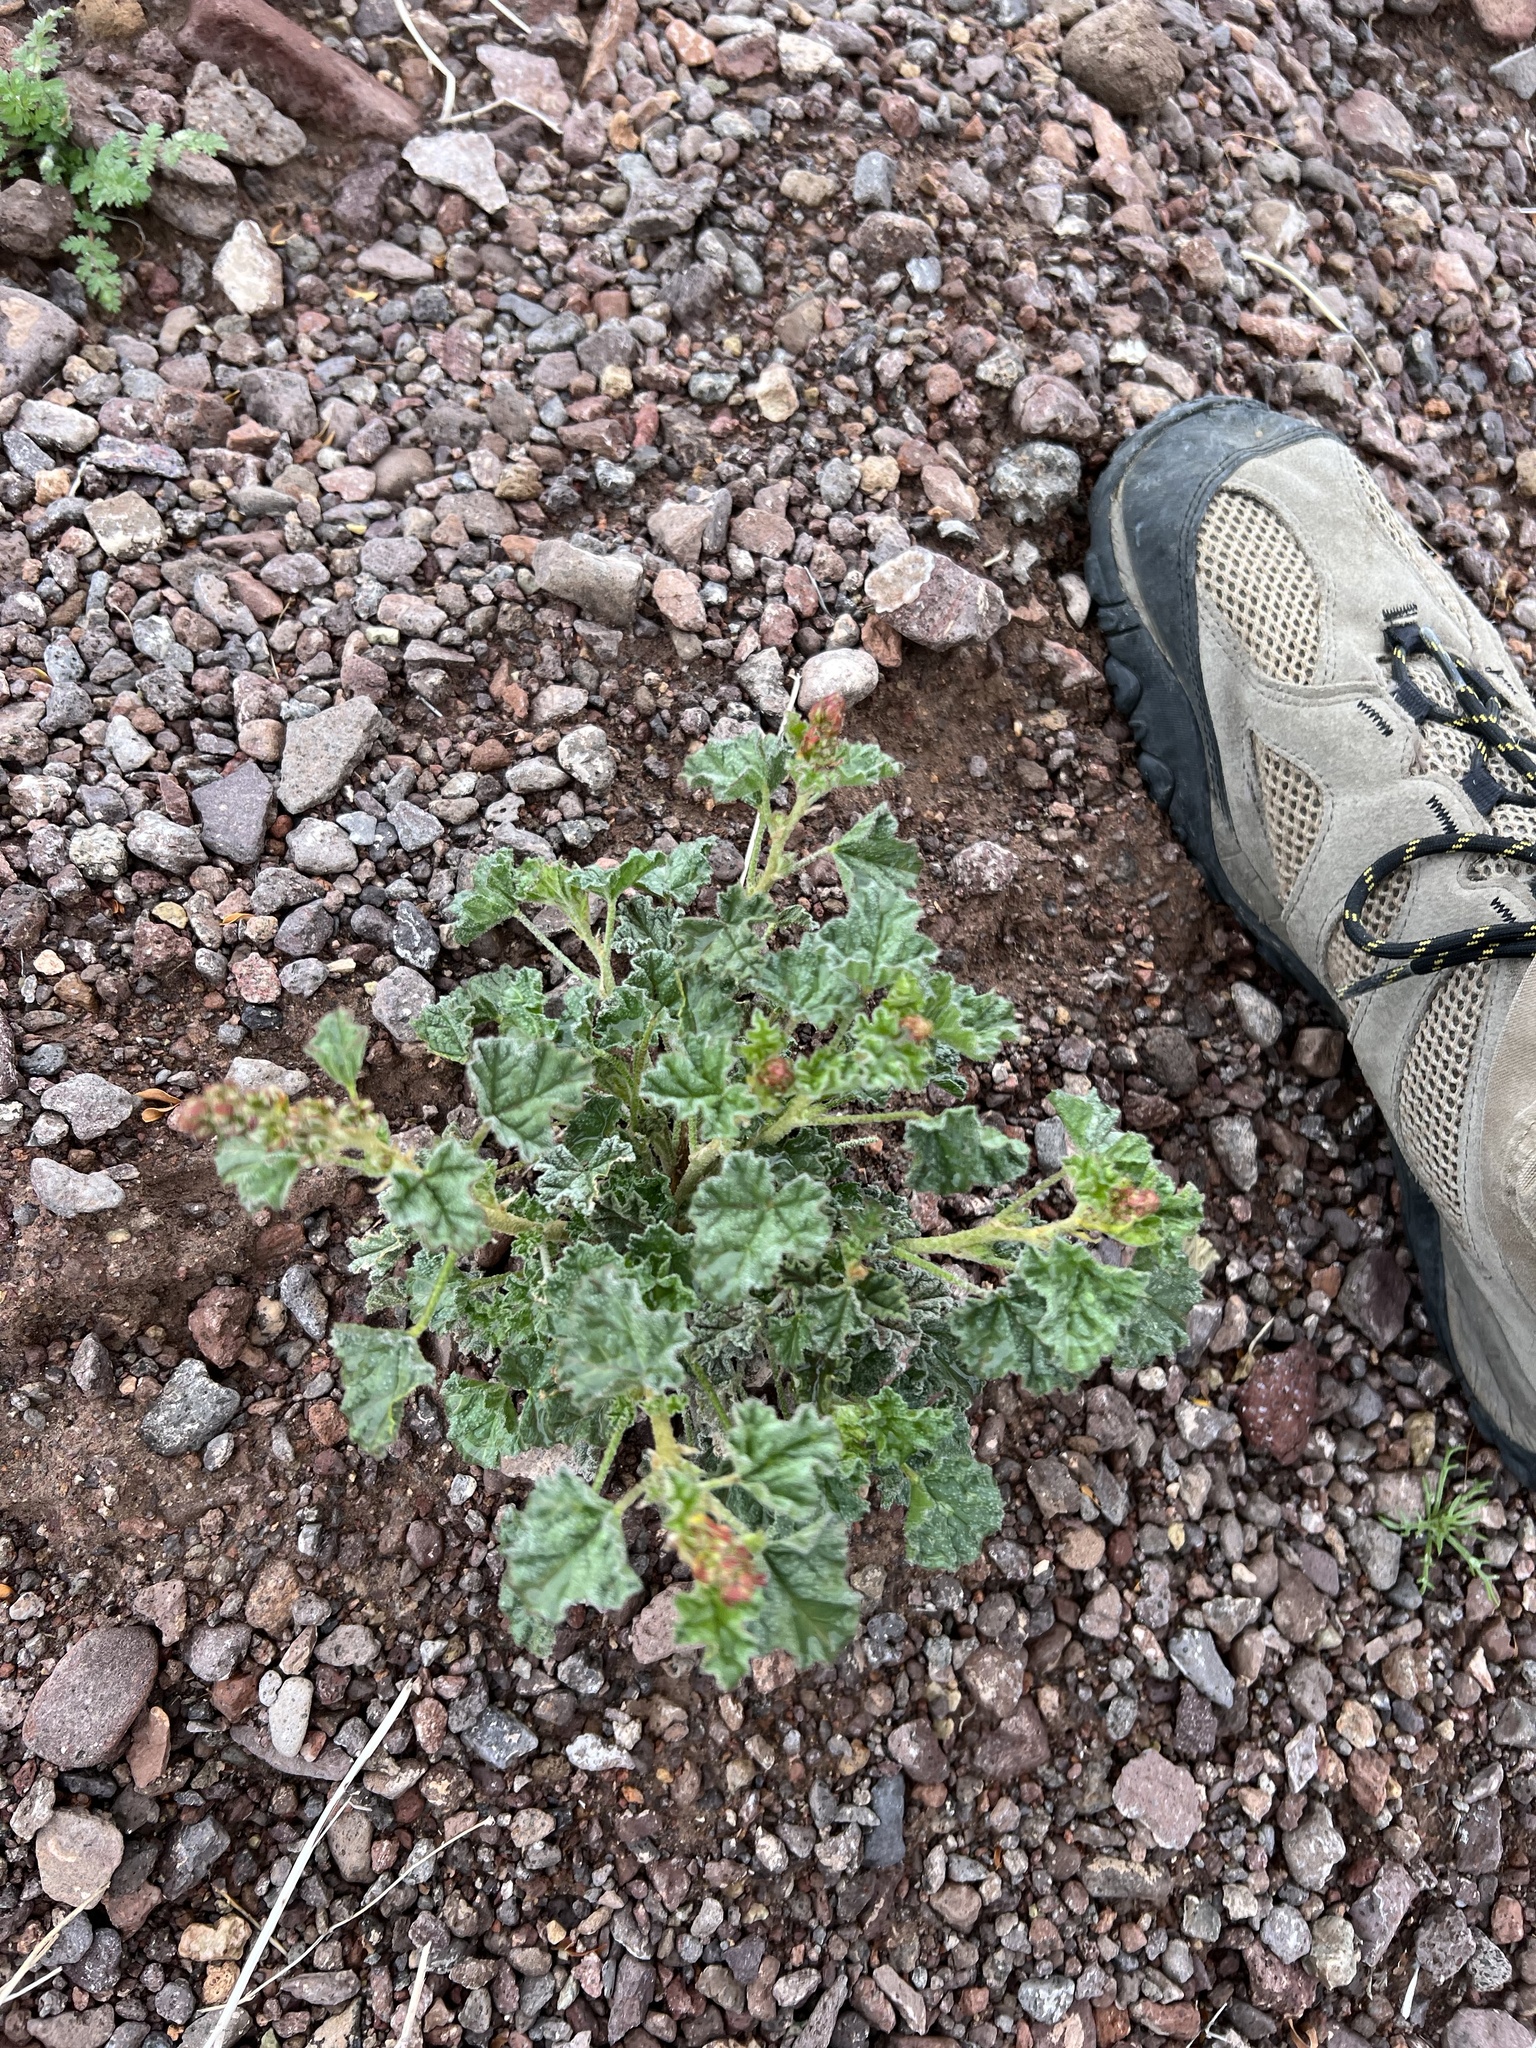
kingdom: Plantae
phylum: Tracheophyta
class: Magnoliopsida
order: Malvales
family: Malvaceae
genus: Sphaeralcea
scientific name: Sphaeralcea ambigua
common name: Apricot globe-mallow
